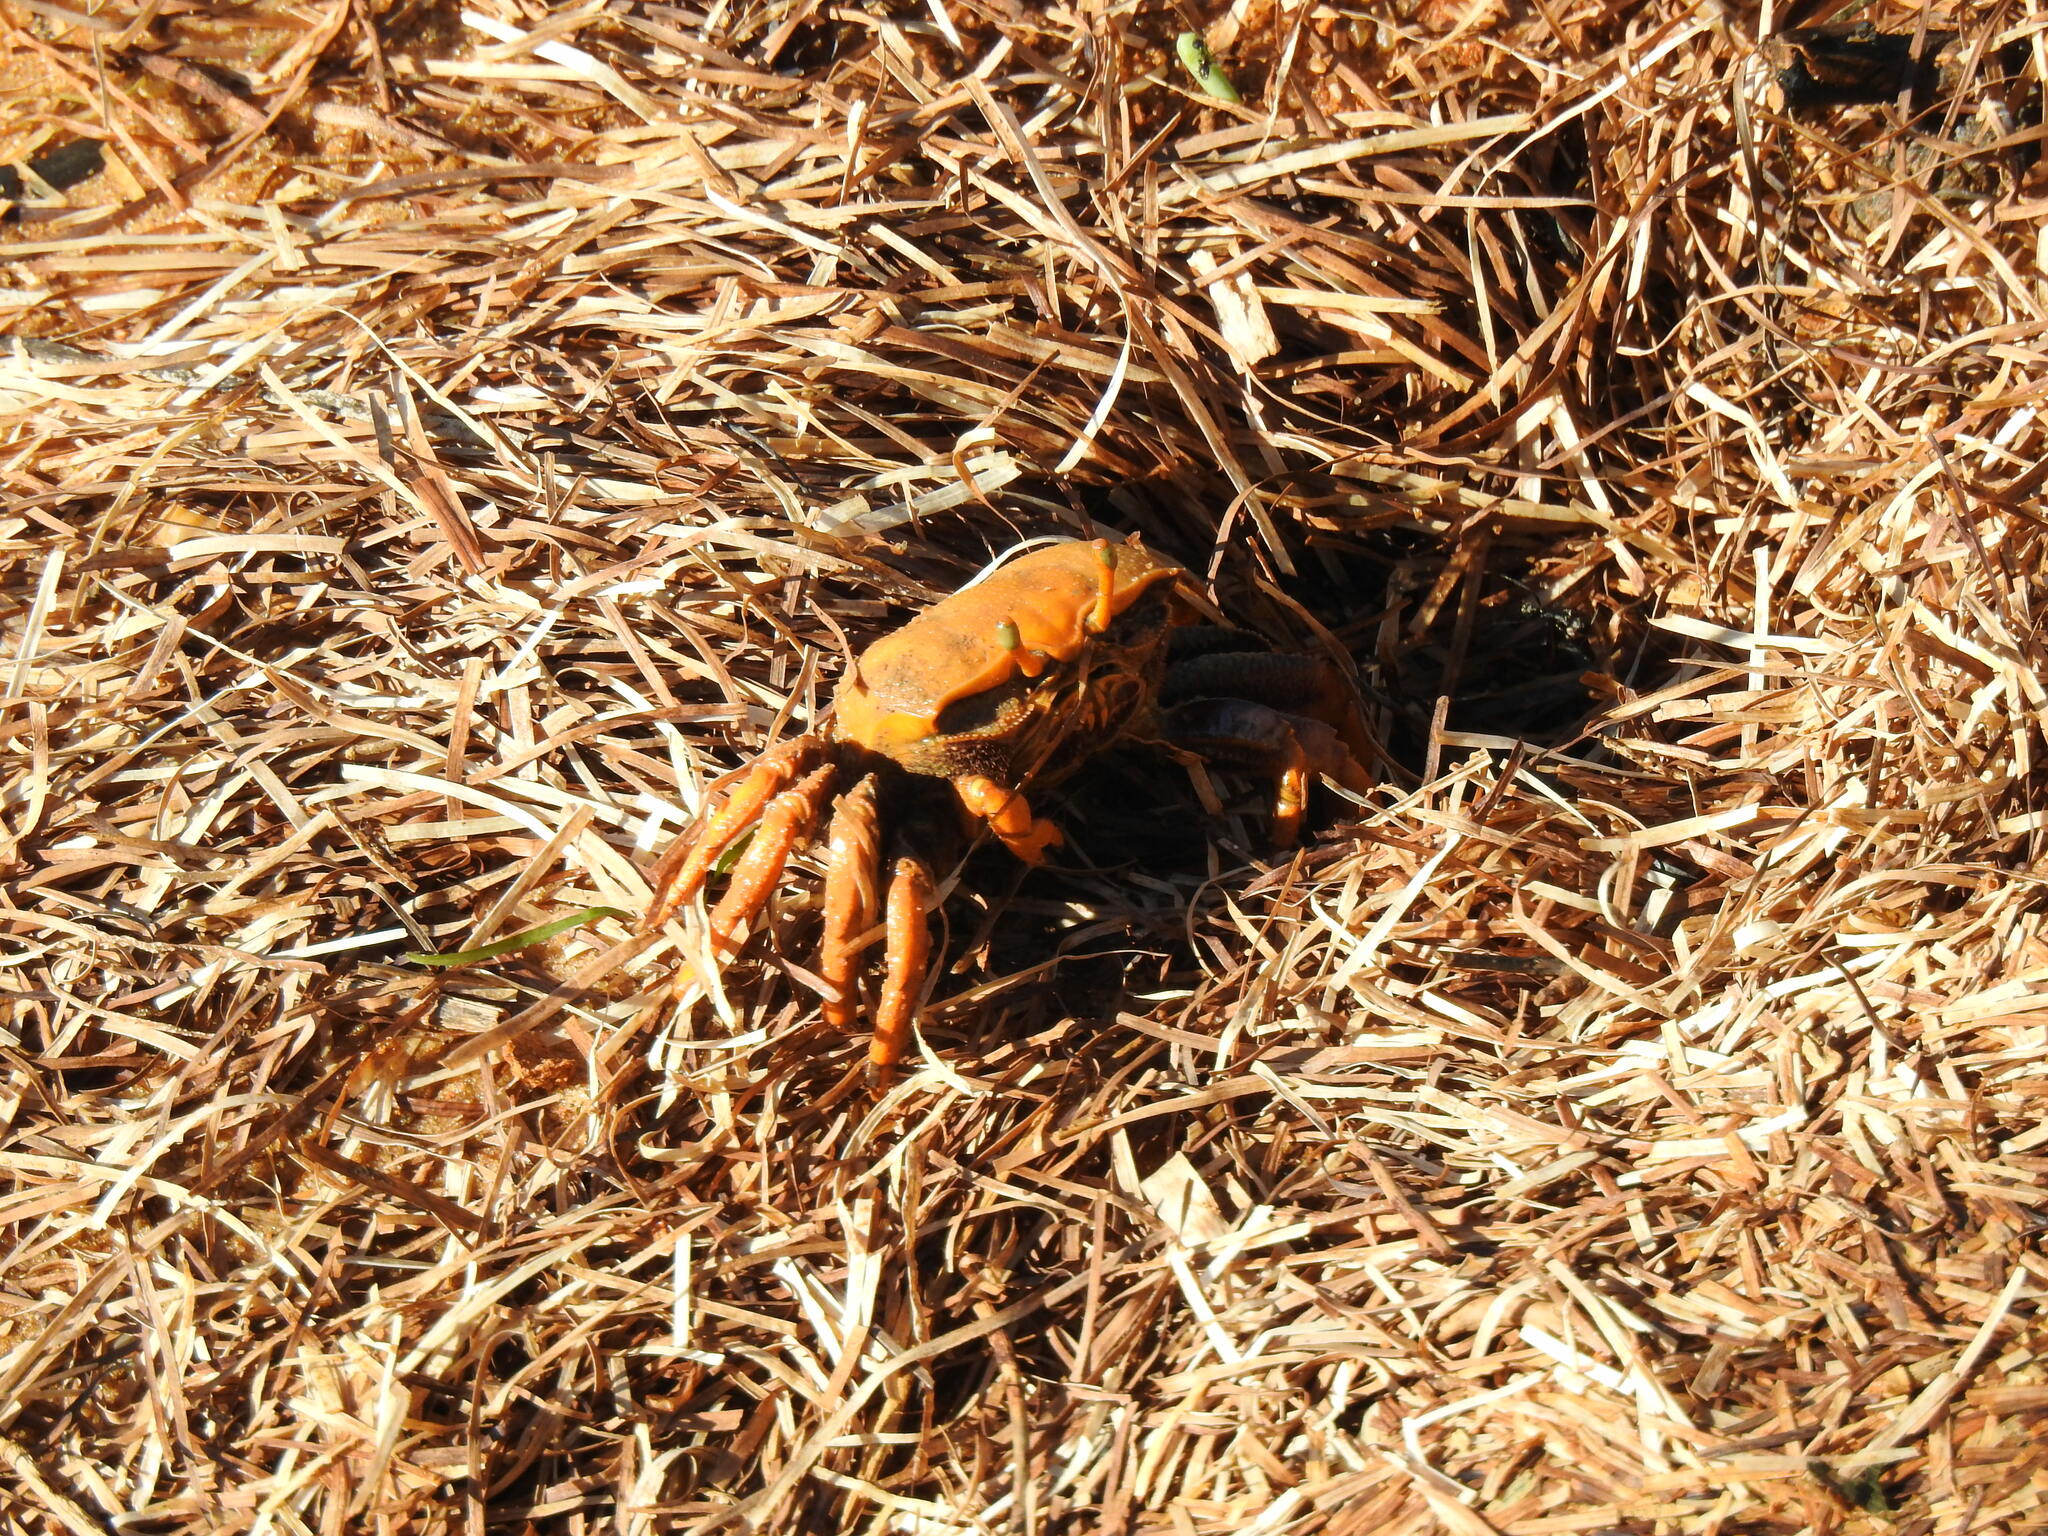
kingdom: Animalia
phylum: Arthropoda
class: Malacostraca
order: Decapoda
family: Ocypodidae
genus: Afruca
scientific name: Afruca tangeri
